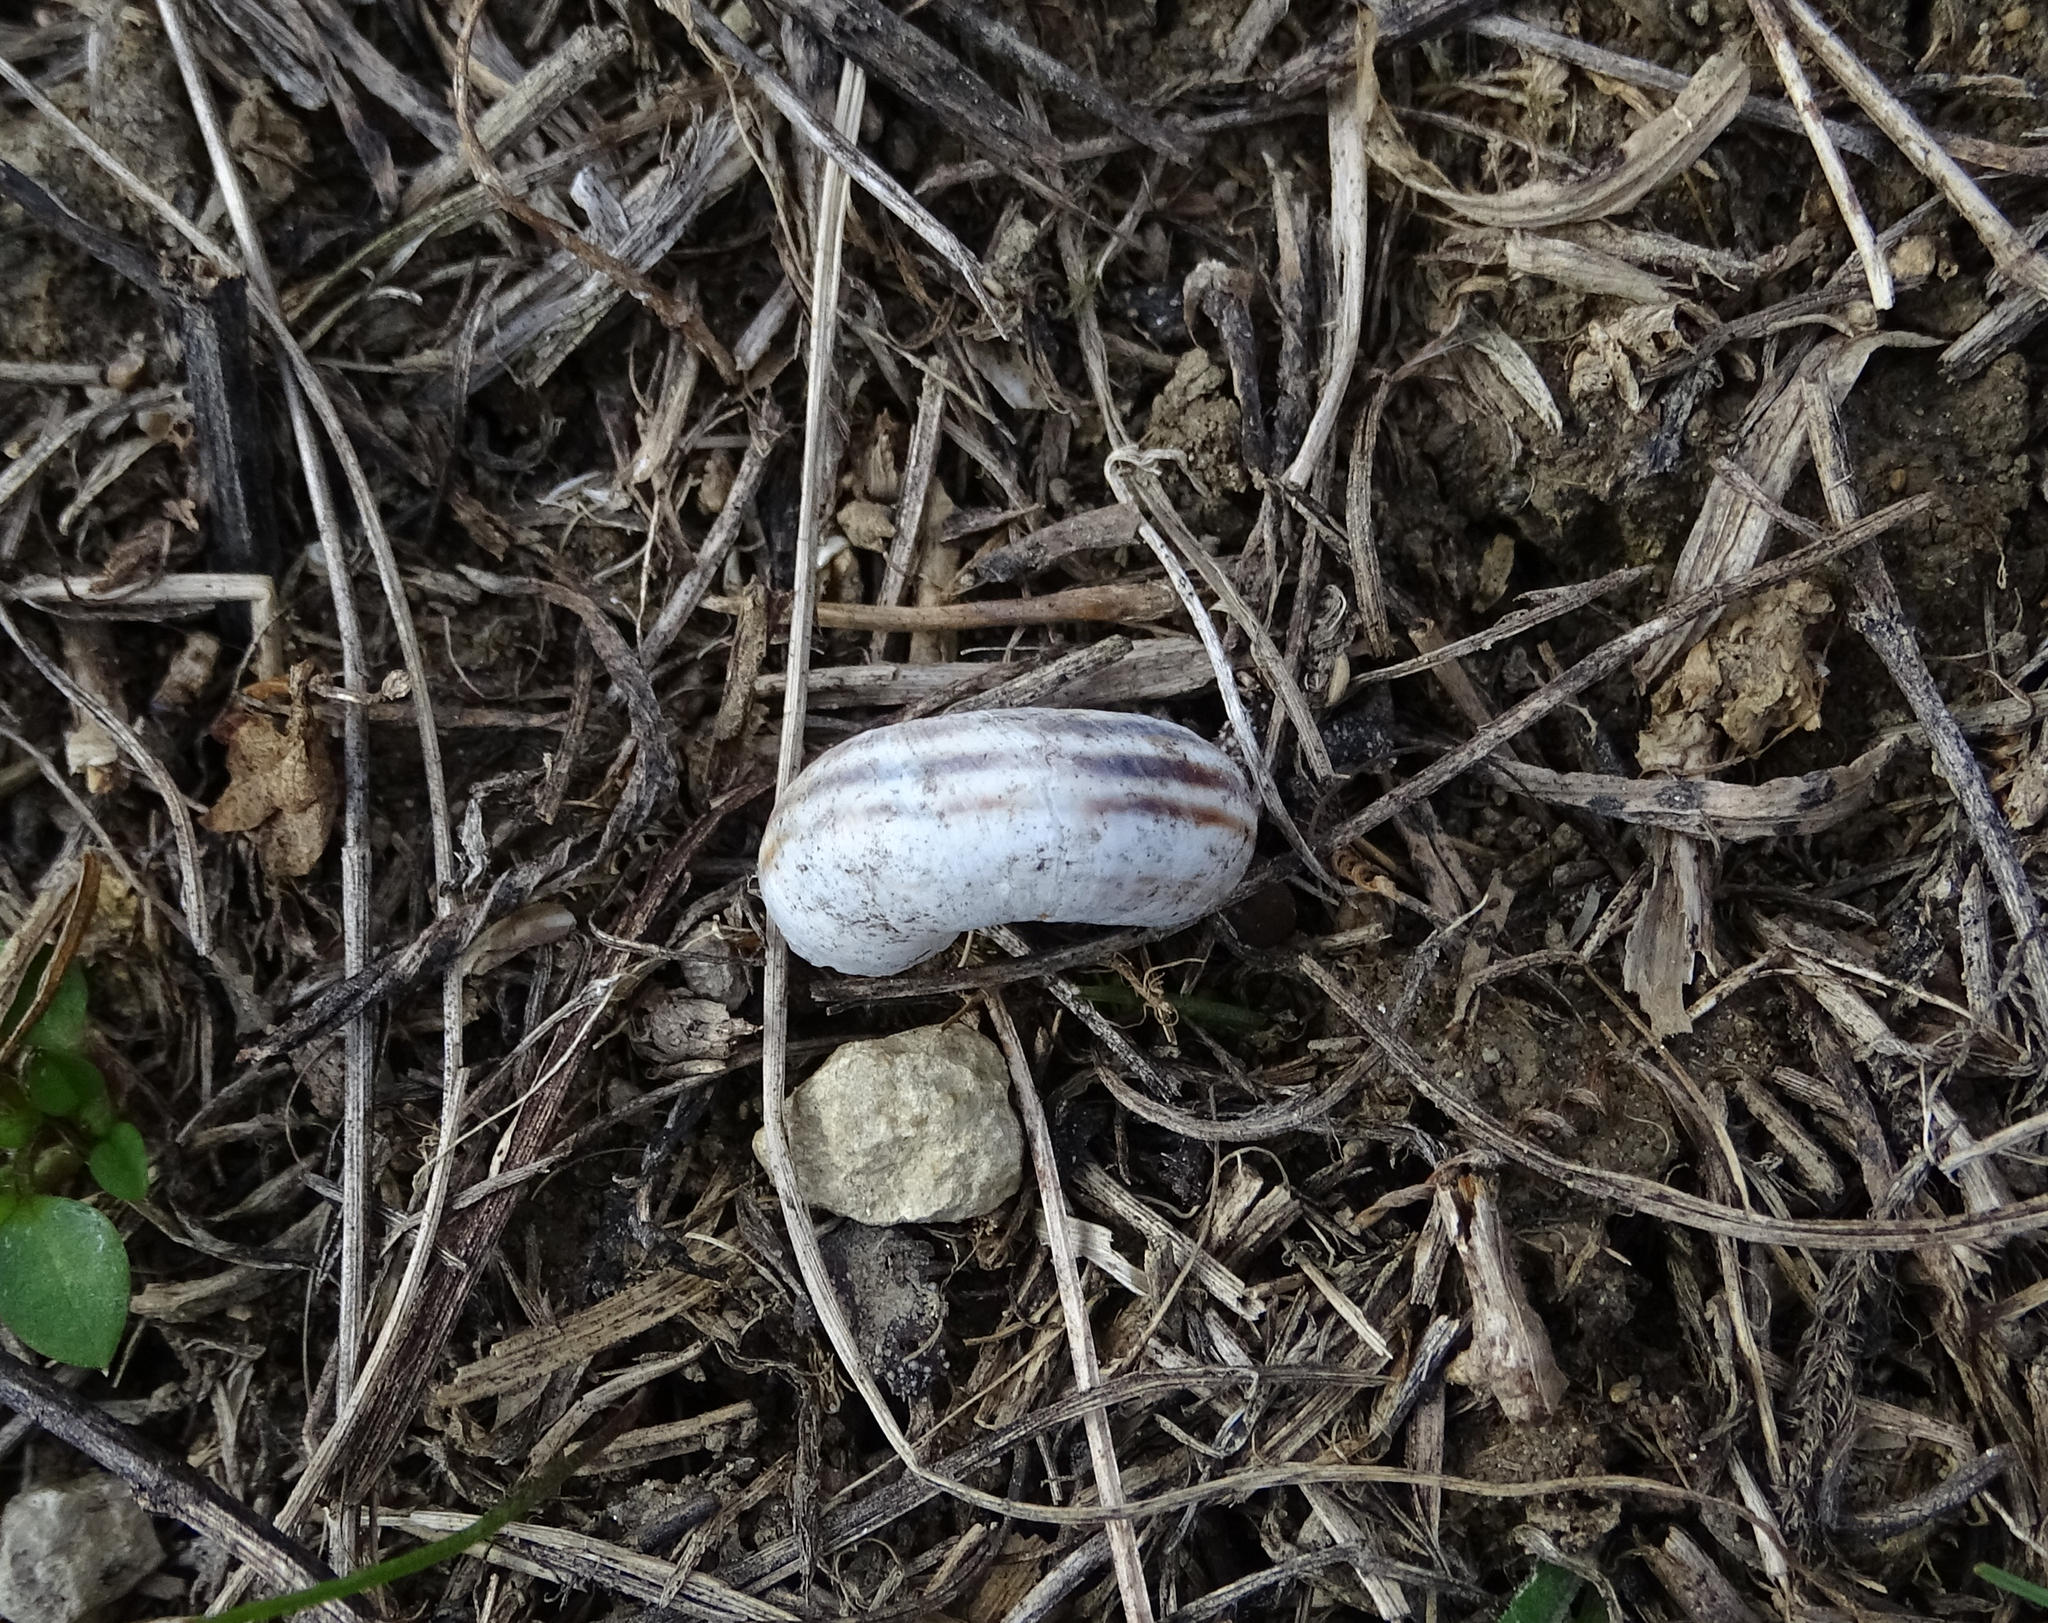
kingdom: Animalia
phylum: Mollusca
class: Gastropoda
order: Stylommatophora
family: Geomitridae
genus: Xerolenta
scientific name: Xerolenta obvia
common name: White heath snail
